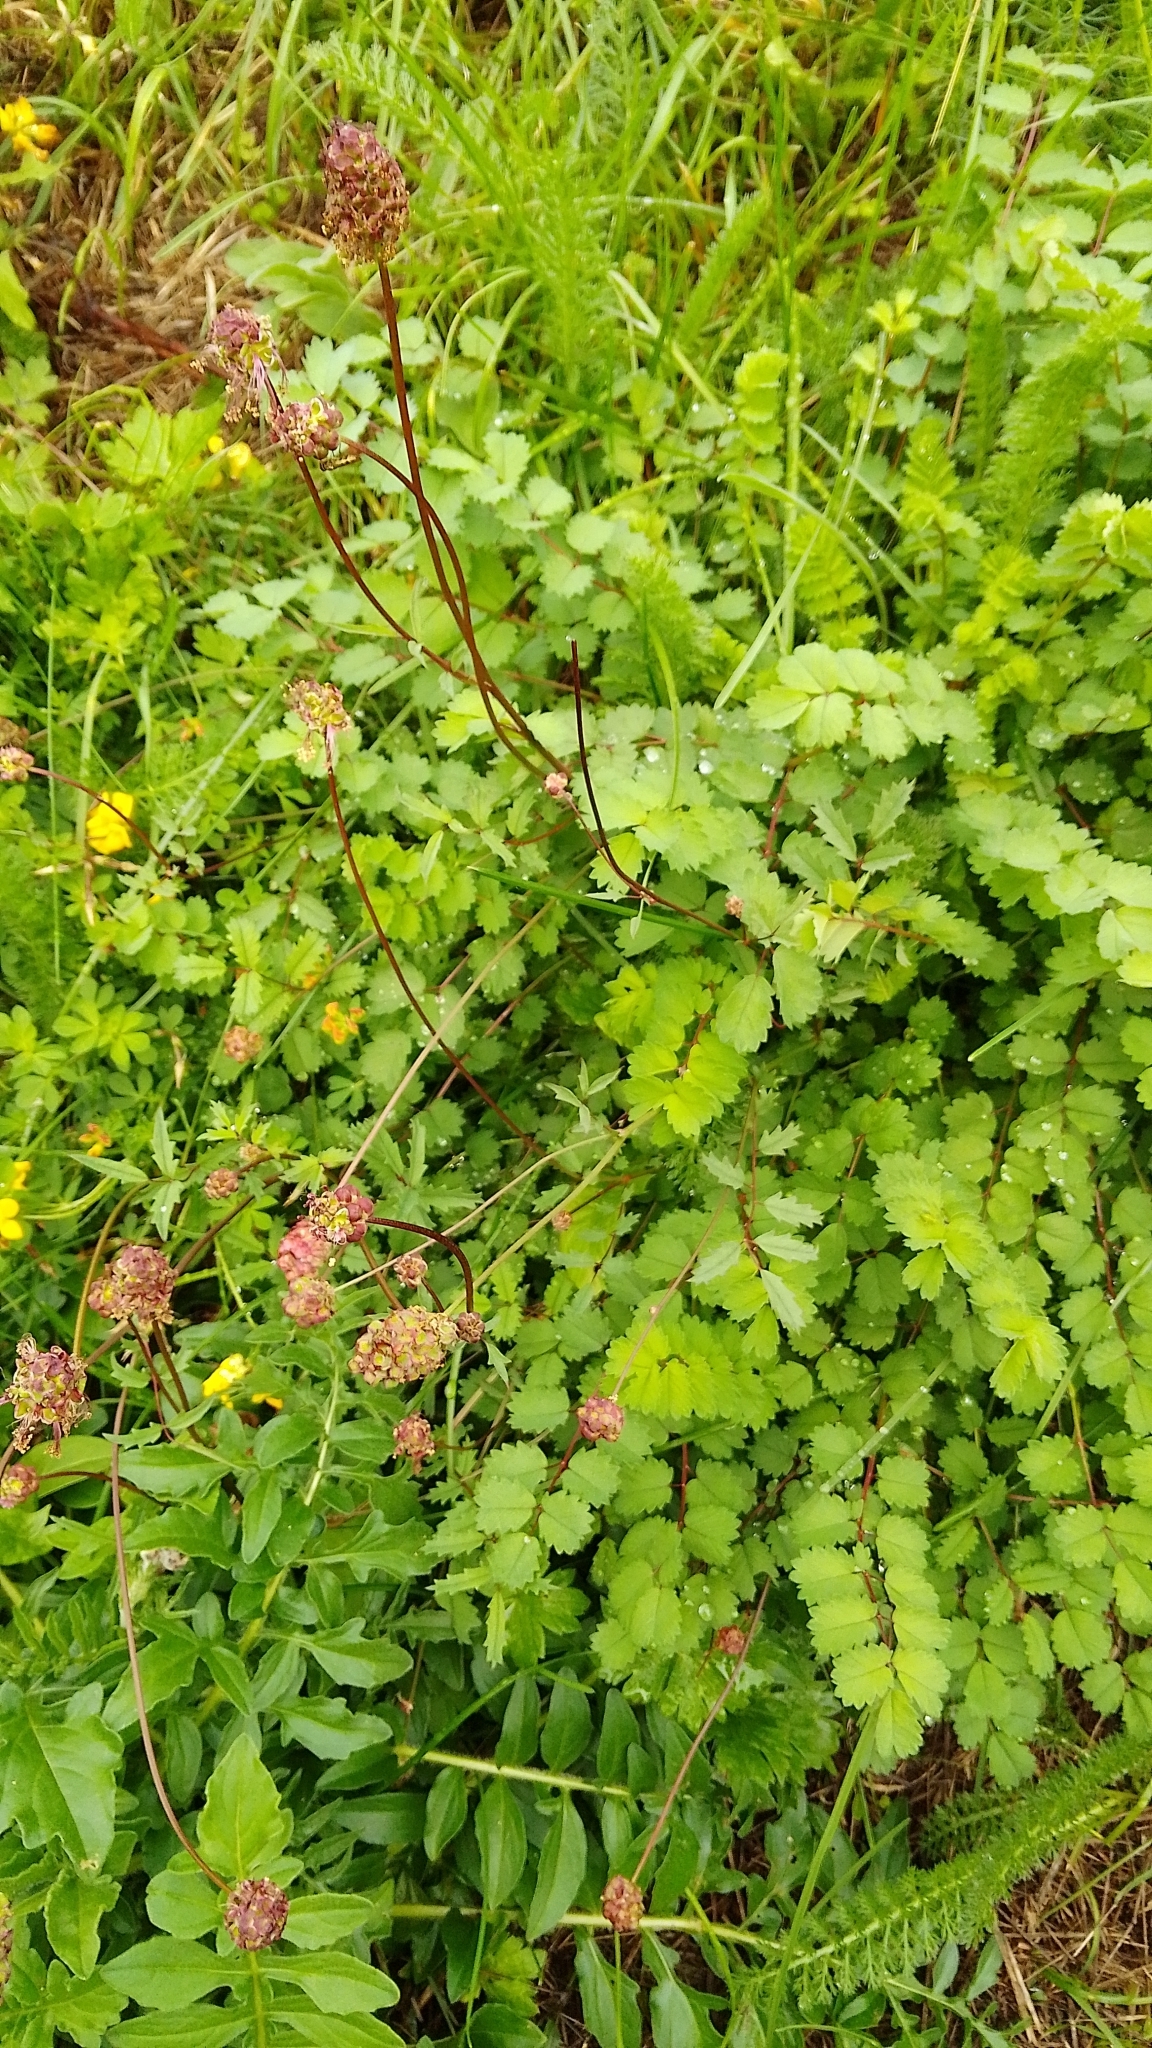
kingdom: Plantae
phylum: Tracheophyta
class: Magnoliopsida
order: Rosales
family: Rosaceae
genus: Poterium
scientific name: Poterium sanguisorba
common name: Salad burnet
